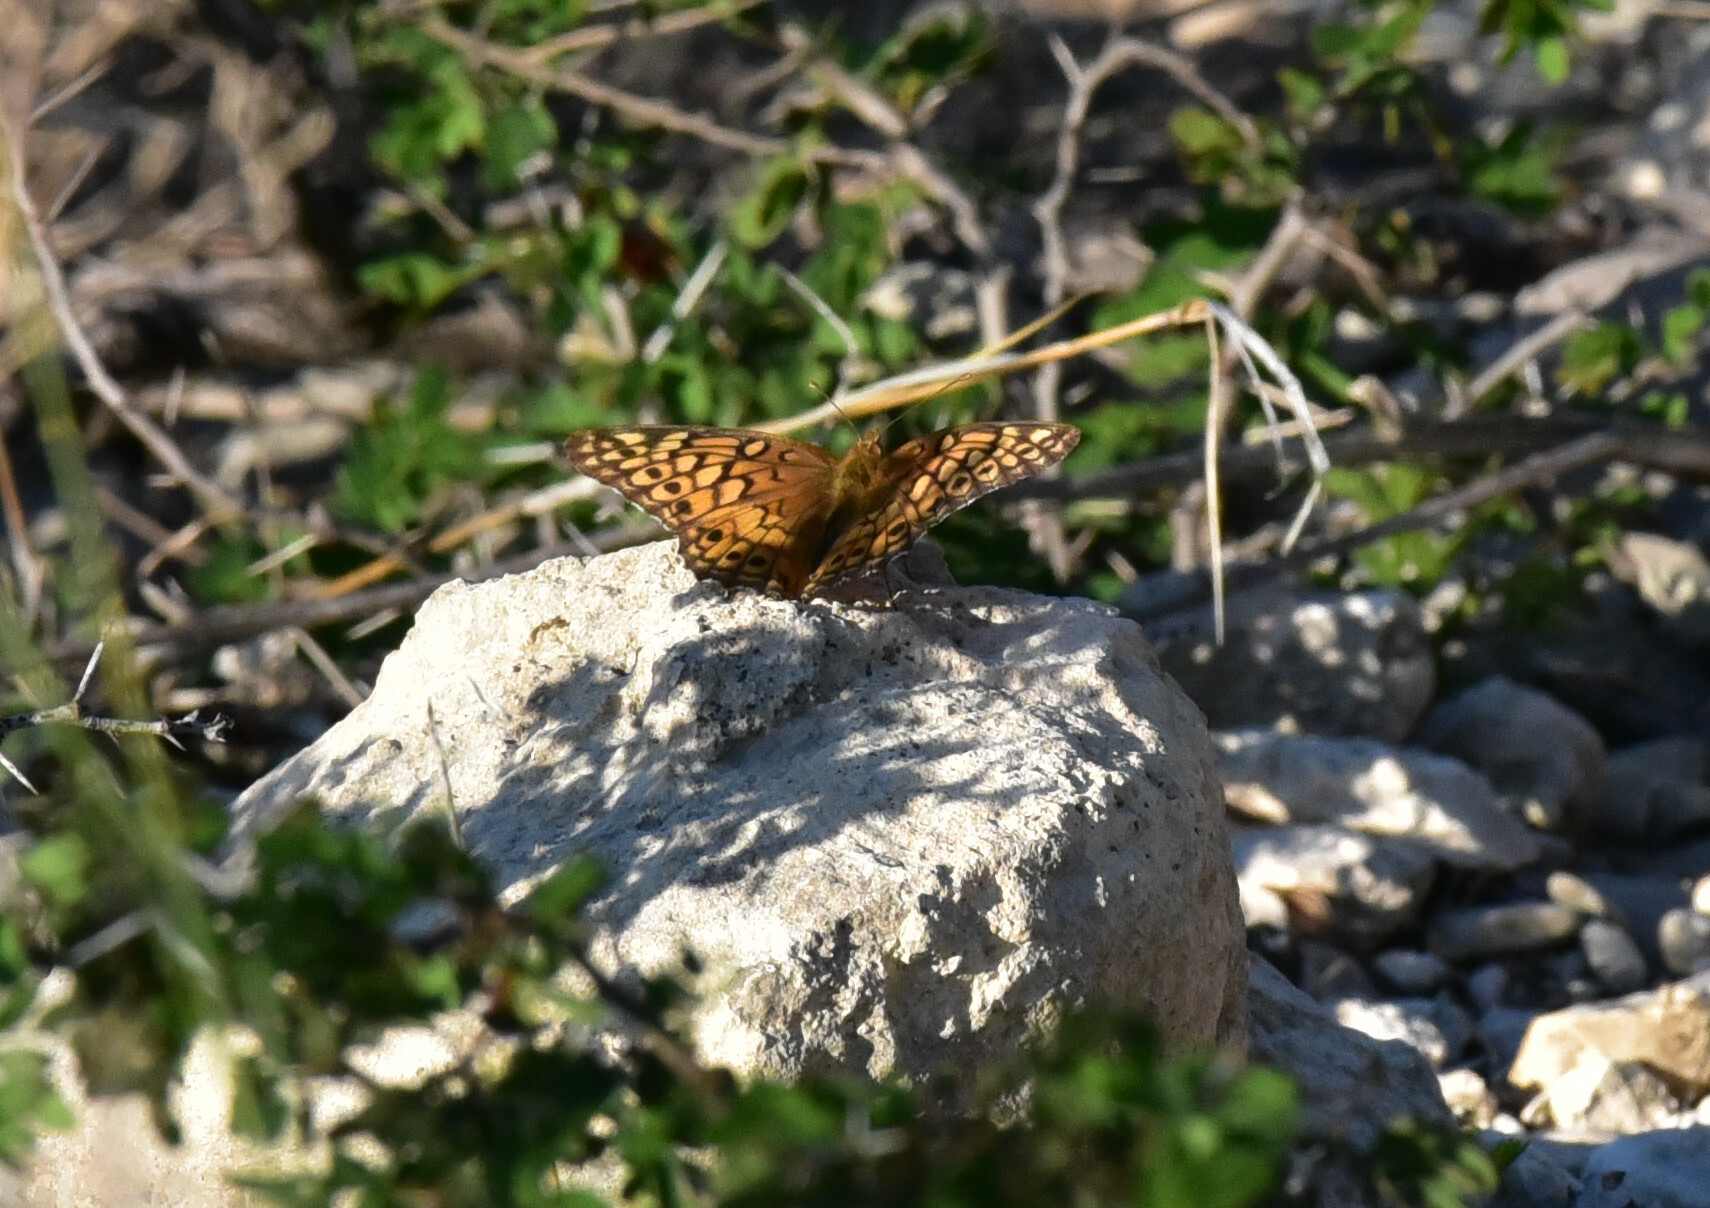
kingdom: Animalia
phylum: Arthropoda
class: Insecta
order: Lepidoptera
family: Nymphalidae
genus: Euptoieta
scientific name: Euptoieta claudia
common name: Variegated fritillary
